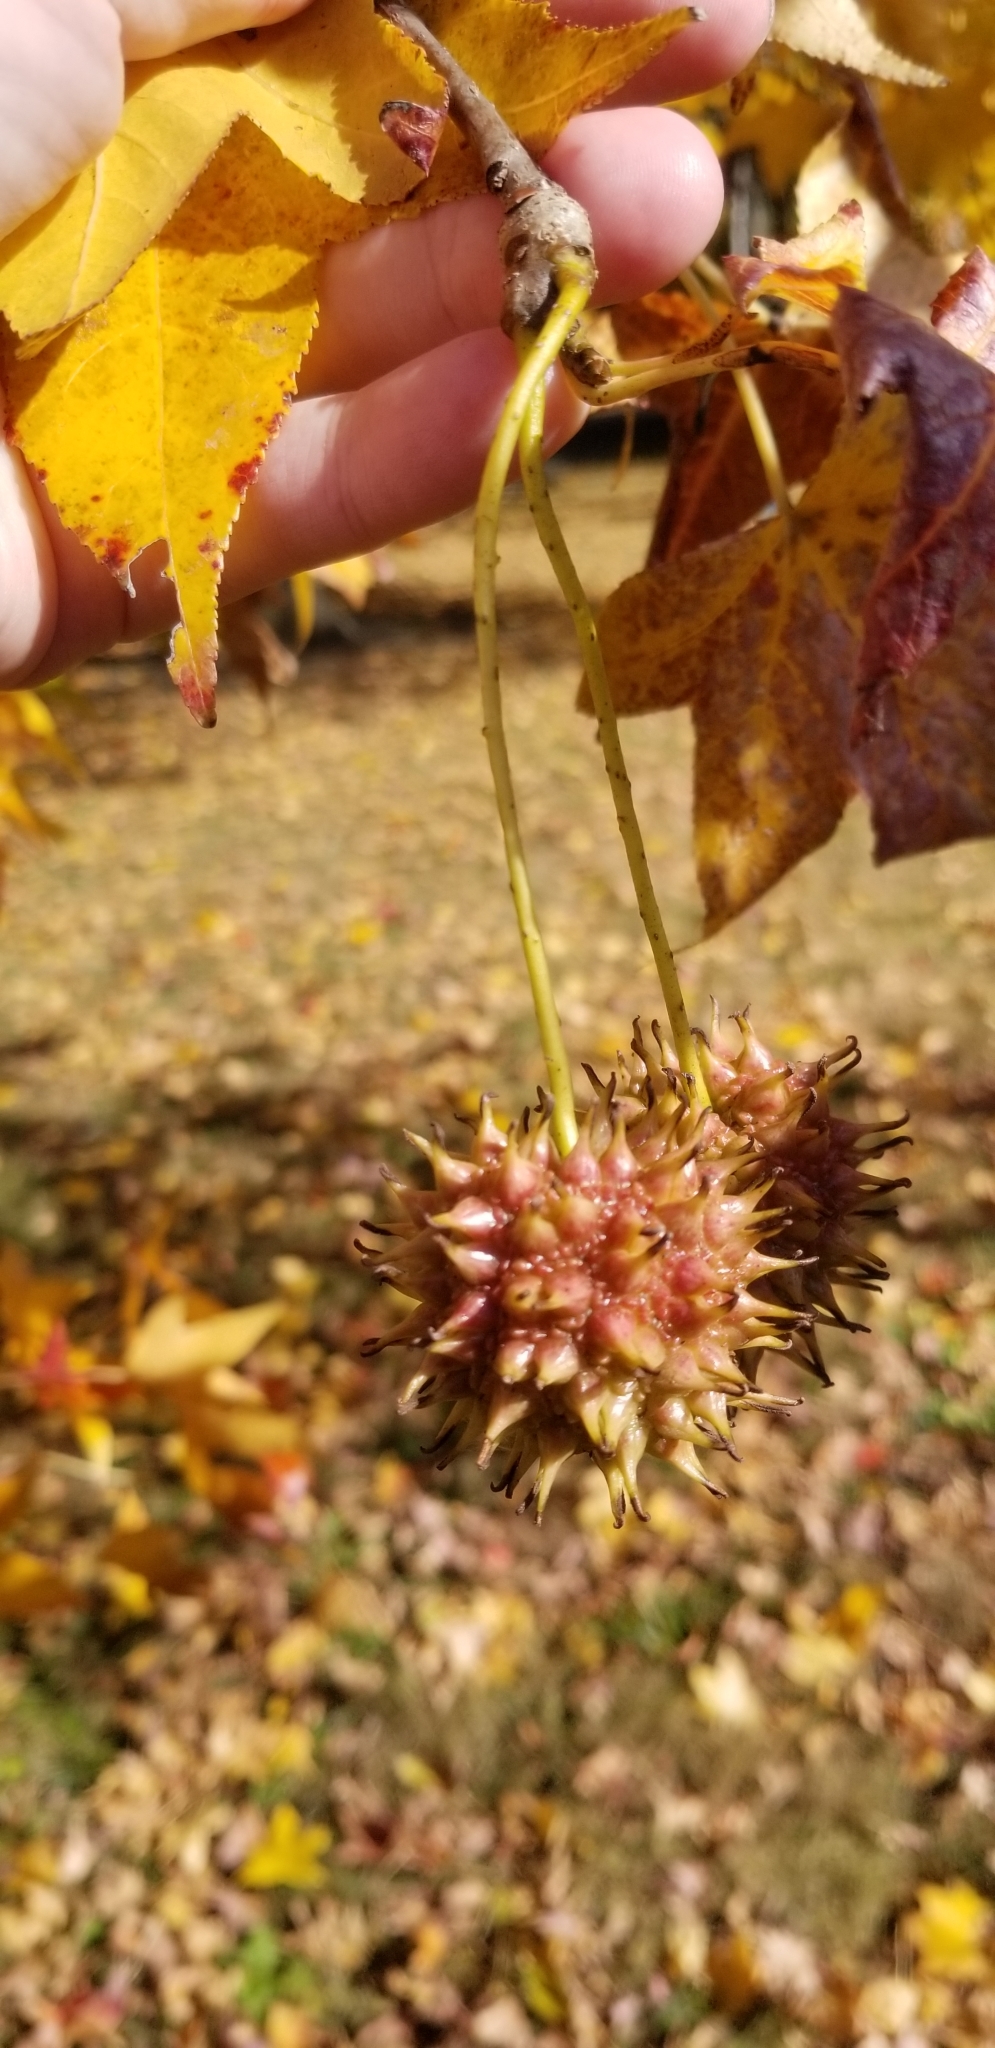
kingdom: Plantae
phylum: Tracheophyta
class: Magnoliopsida
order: Saxifragales
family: Altingiaceae
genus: Liquidambar
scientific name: Liquidambar styraciflua
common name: Sweet gum
